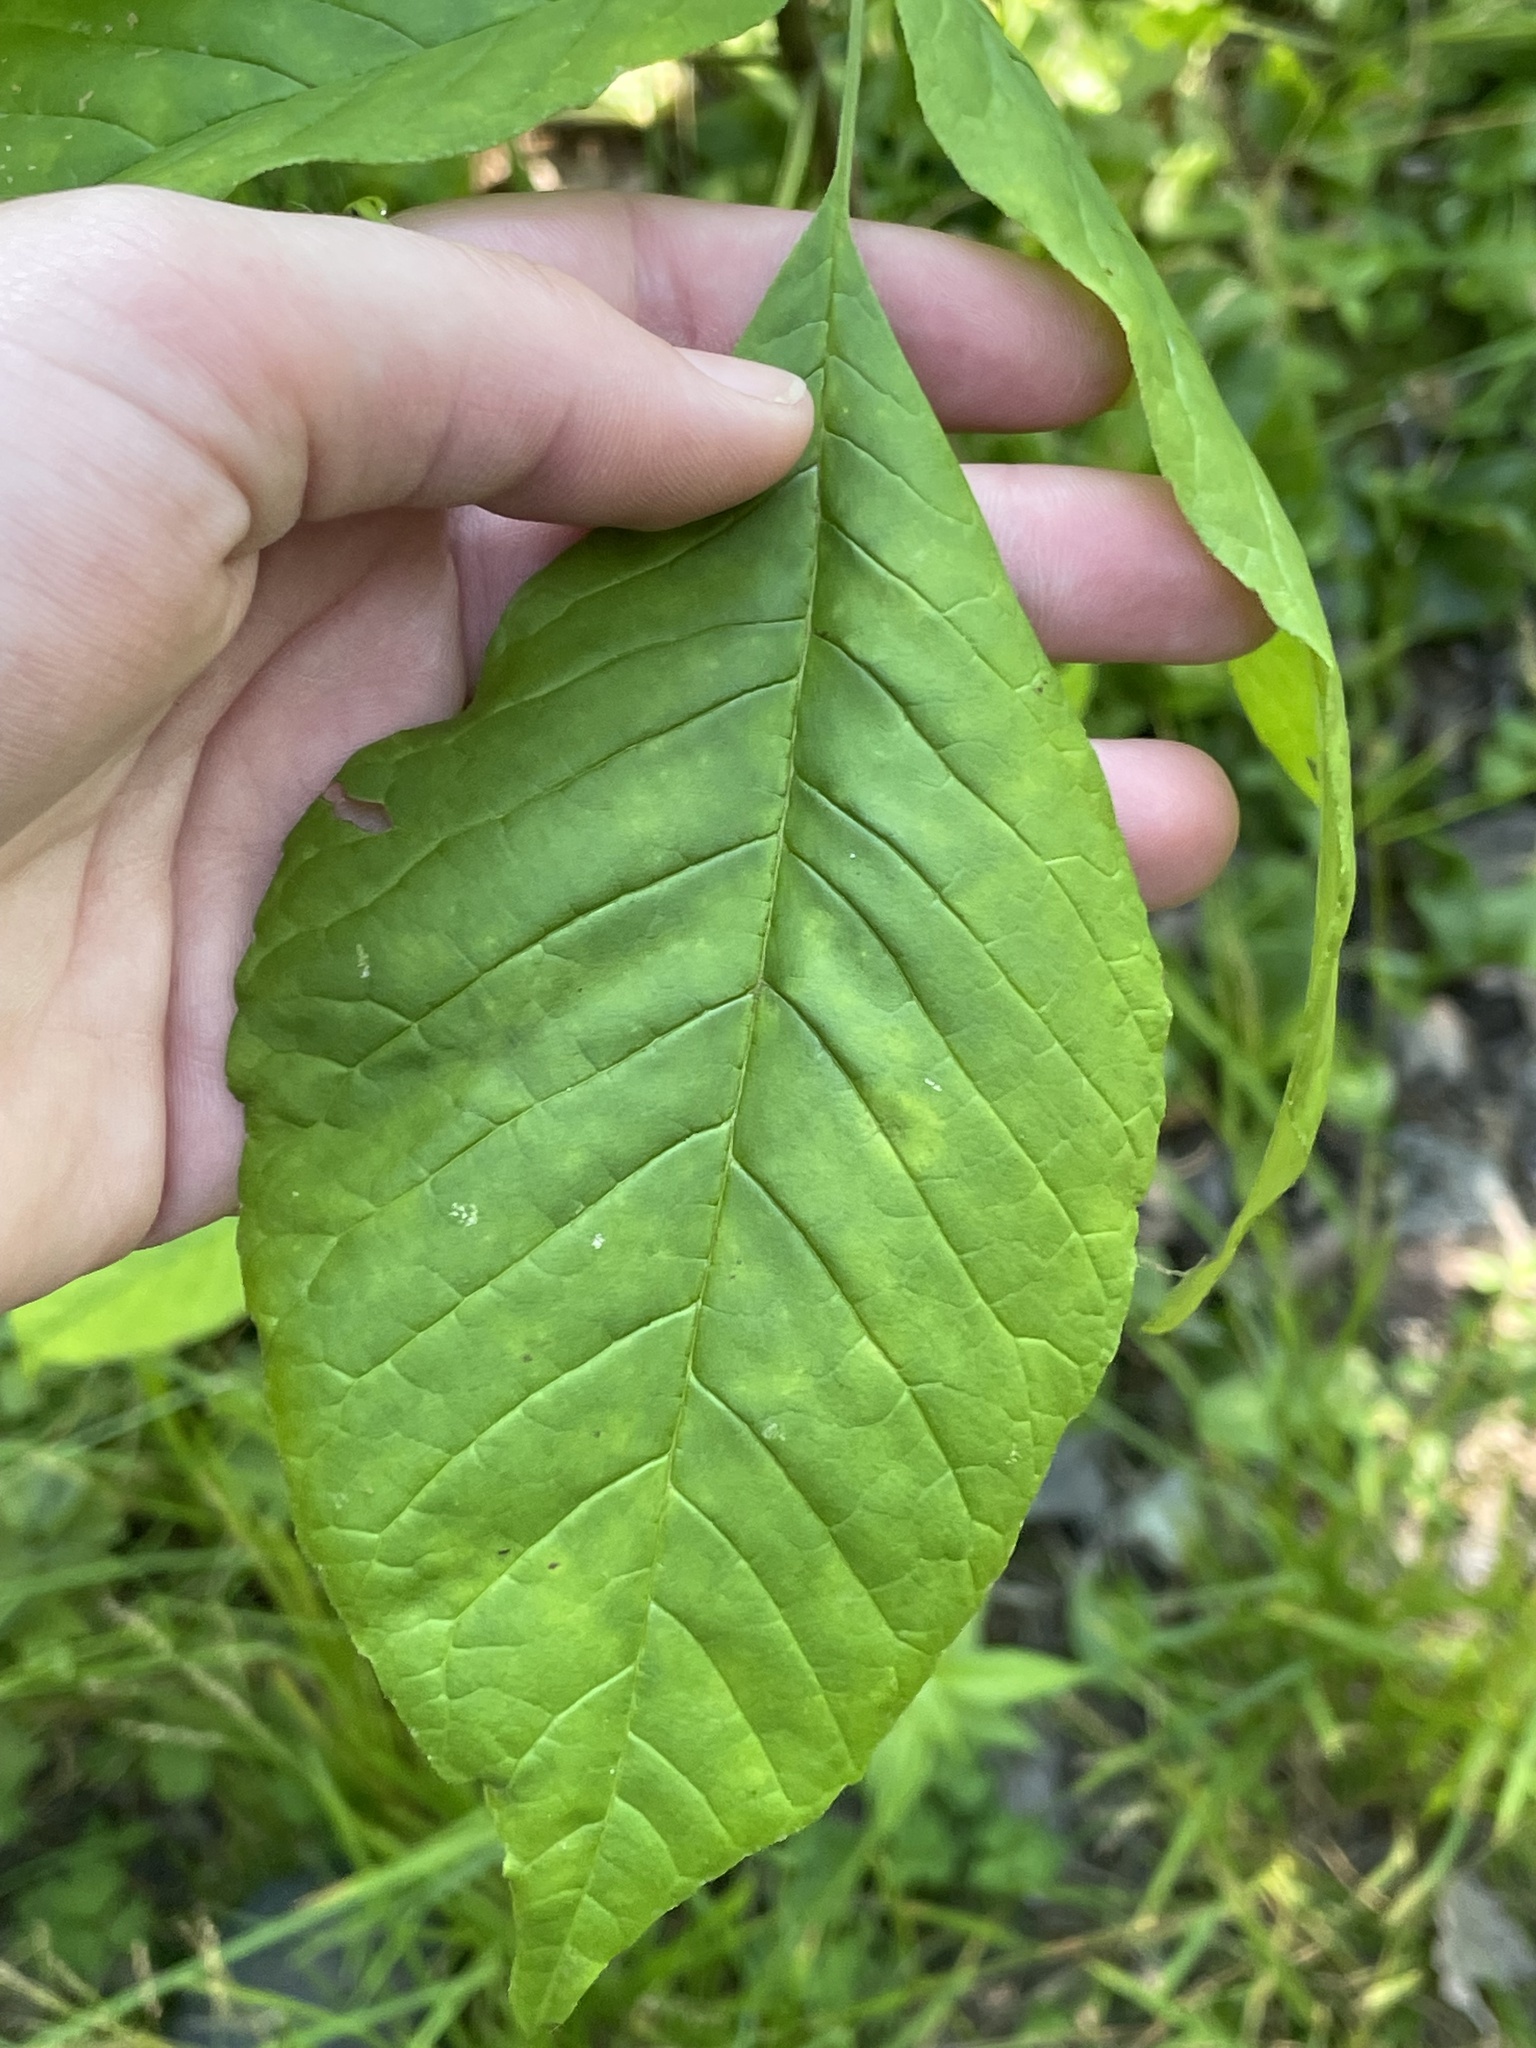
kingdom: Plantae
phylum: Tracheophyta
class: Magnoliopsida
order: Lamiales
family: Oleaceae
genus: Fraxinus
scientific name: Fraxinus americana
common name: White ash
